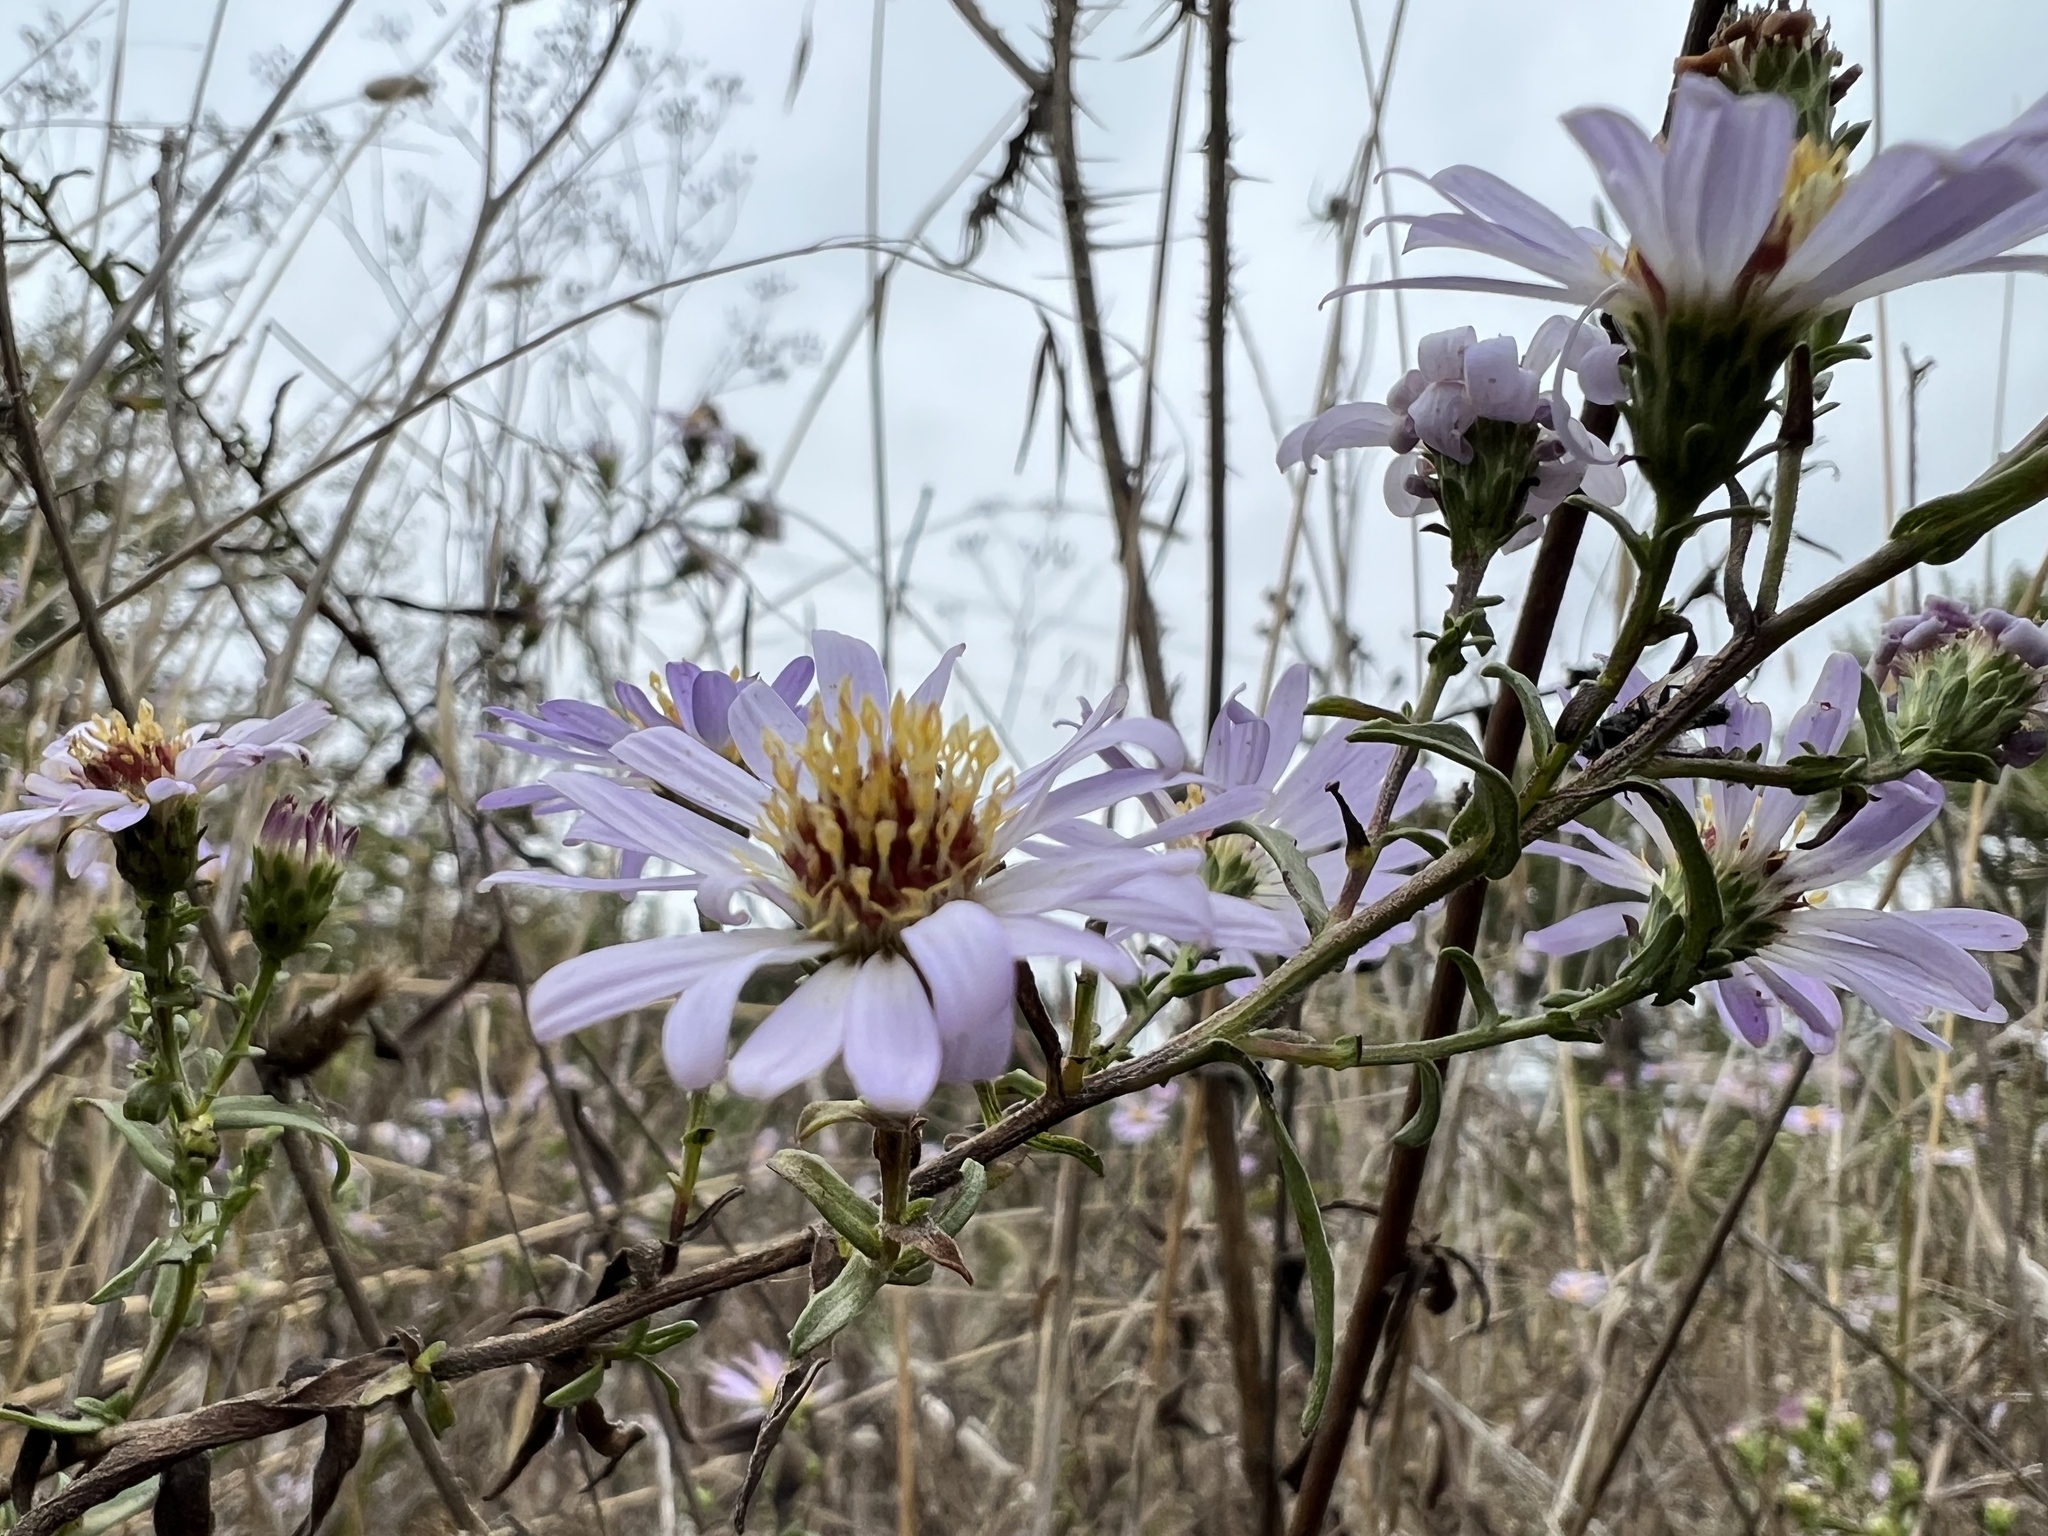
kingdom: Plantae
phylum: Tracheophyta
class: Magnoliopsida
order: Asterales
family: Asteraceae
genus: Symphyotrichum
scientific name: Symphyotrichum chilense
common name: Pacific aster
